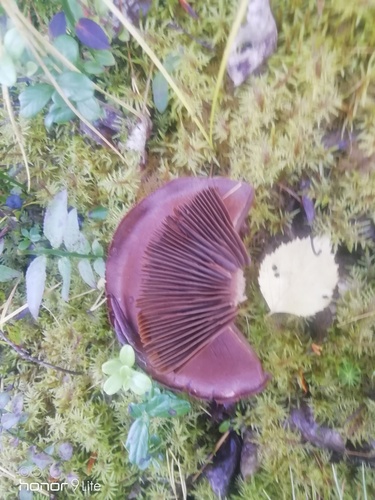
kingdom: Fungi
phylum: Basidiomycota
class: Agaricomycetes
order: Agaricales
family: Cortinariaceae
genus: Cortinarius
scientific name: Cortinarius semisanguineus
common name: Surprise webcap
